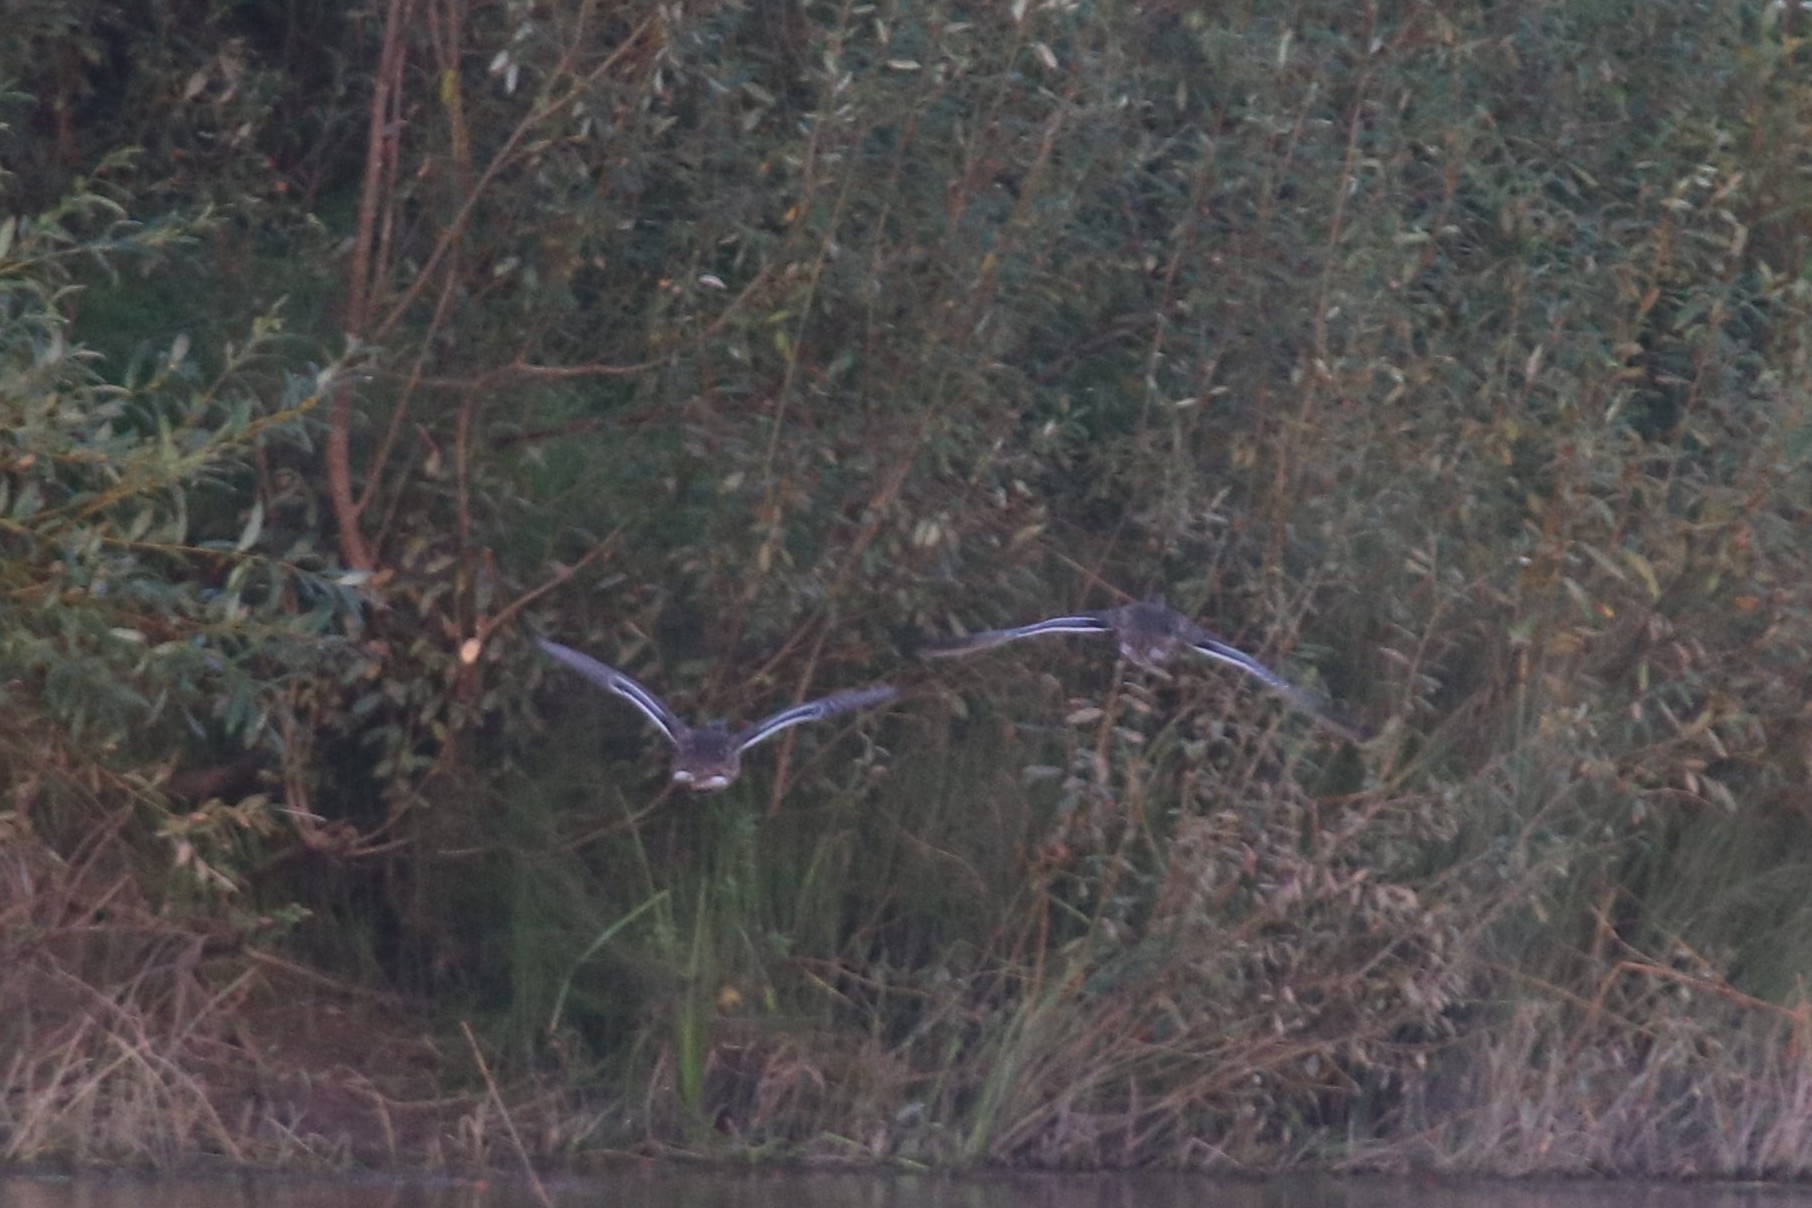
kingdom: Animalia
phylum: Chordata
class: Aves
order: Anseriformes
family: Anatidae
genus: Anas
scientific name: Anas platyrhynchos
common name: Mallard
